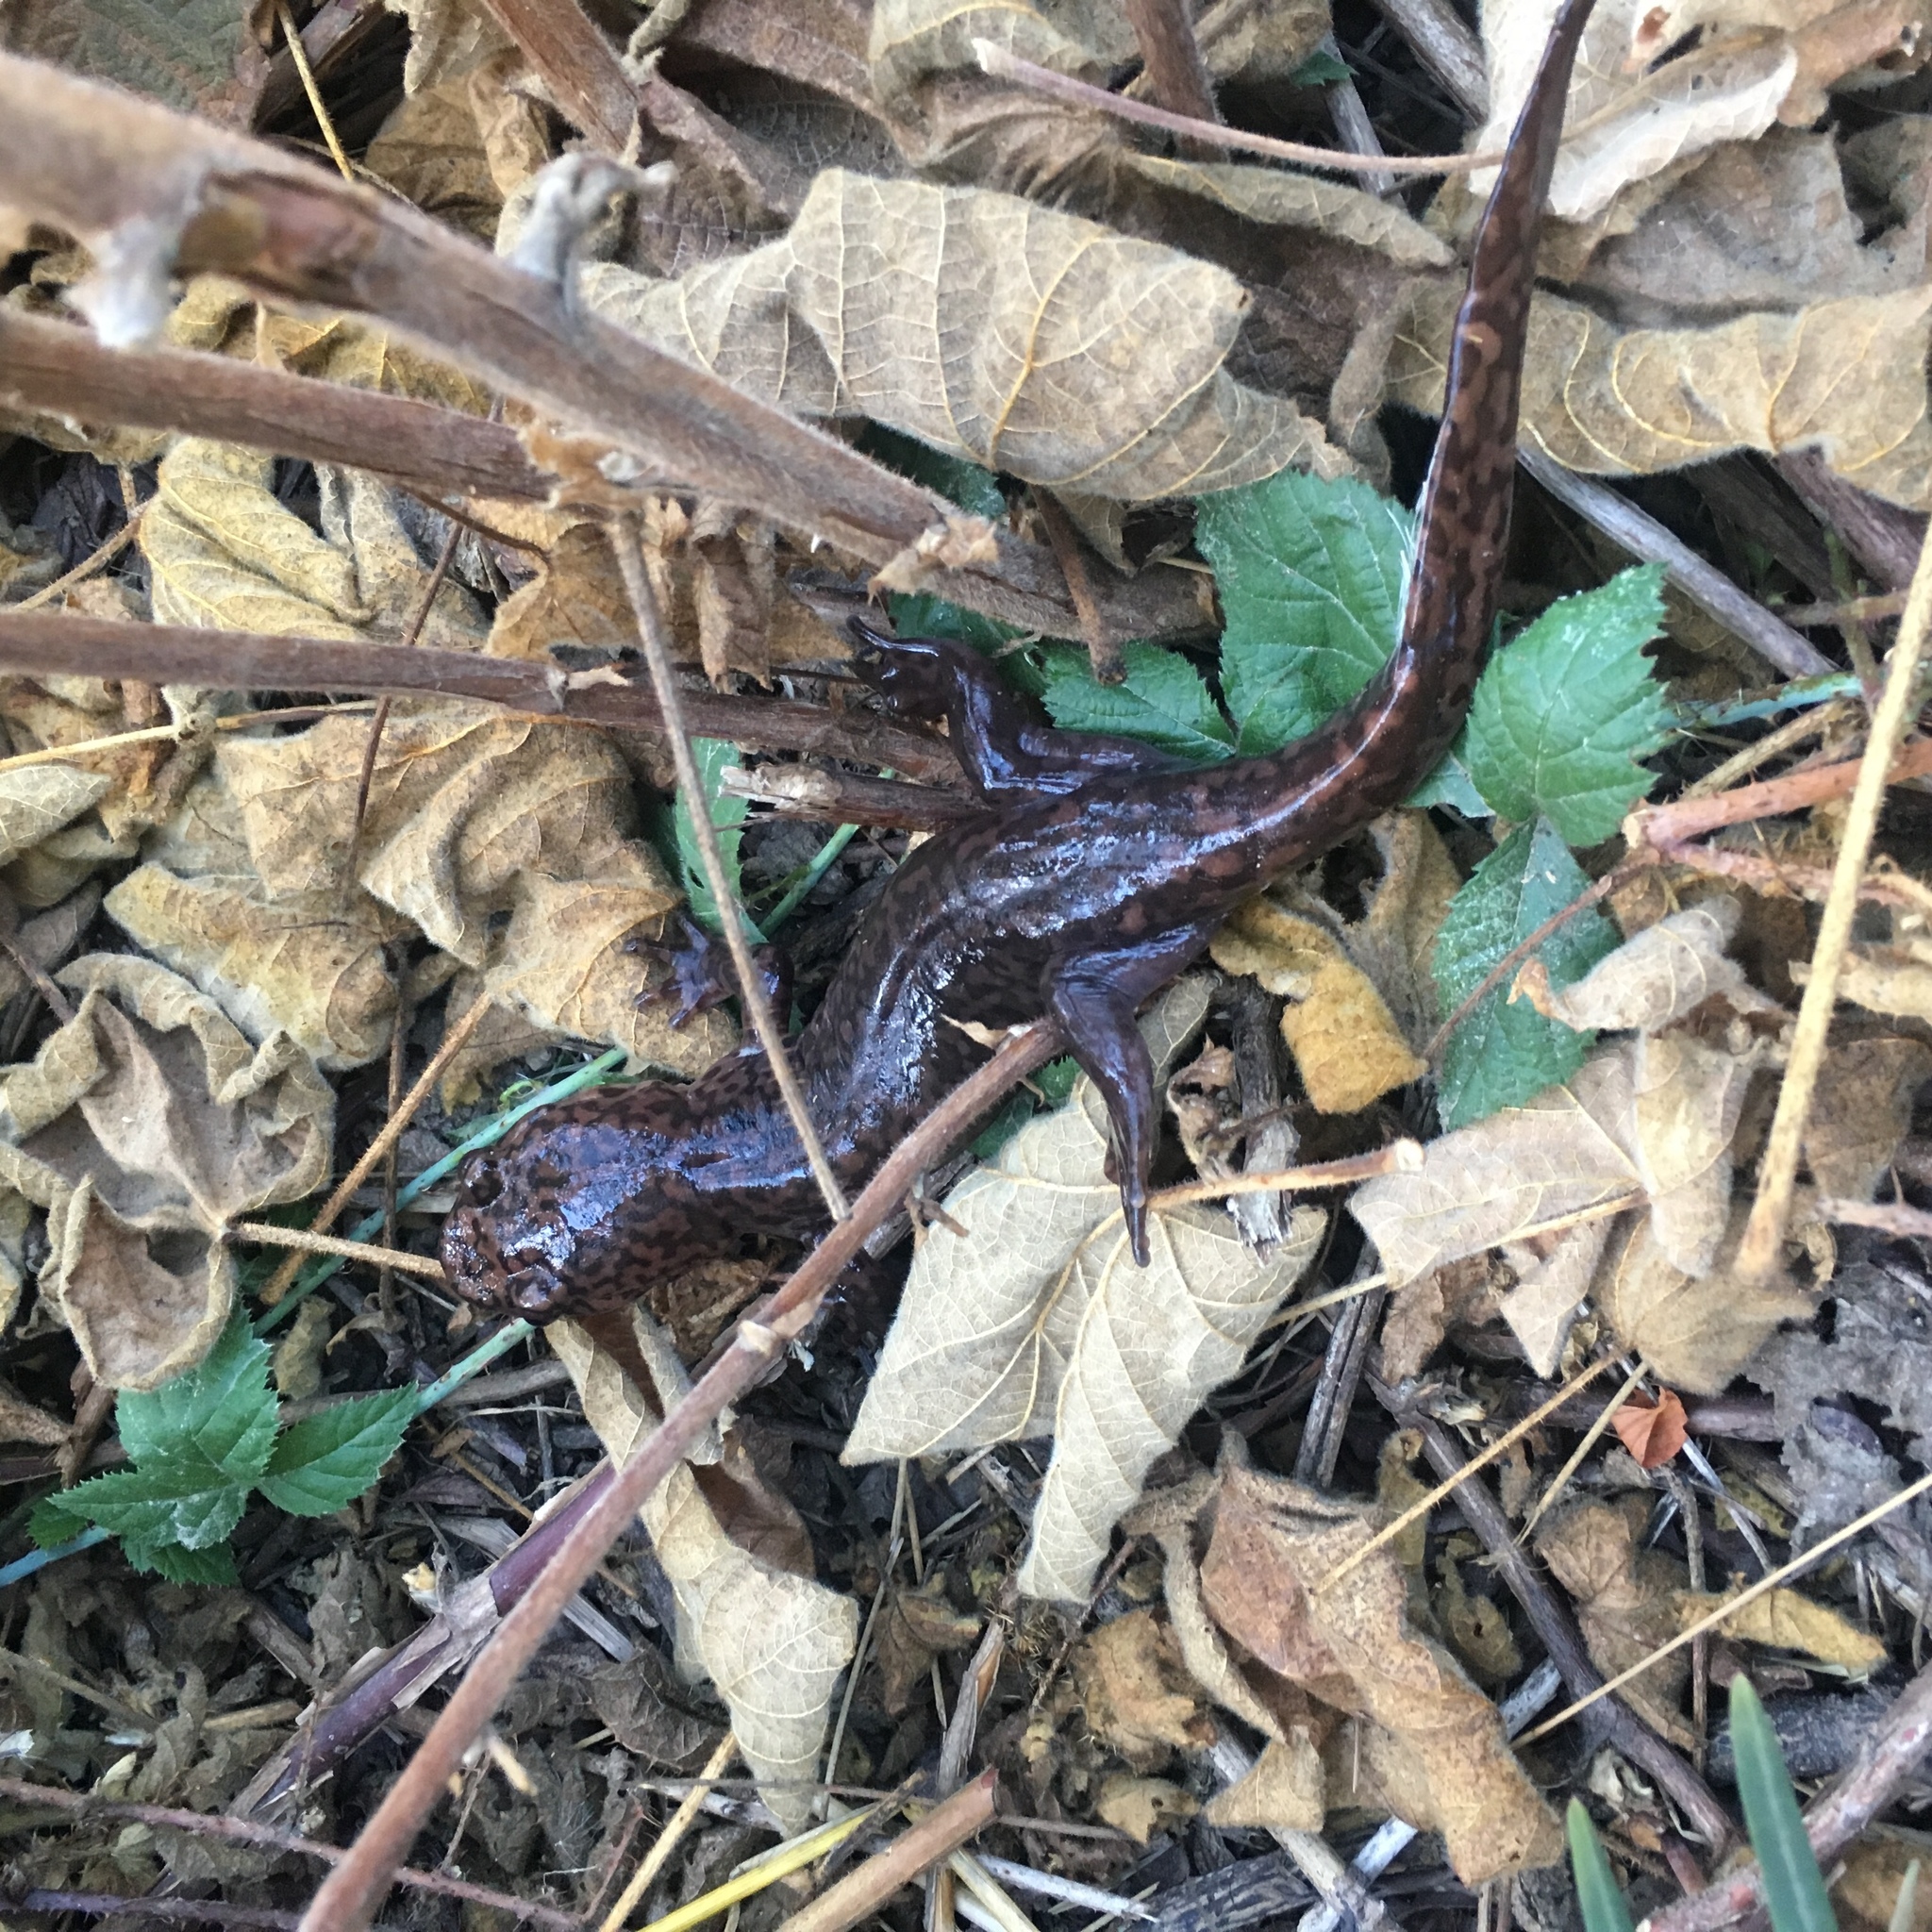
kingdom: Animalia
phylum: Chordata
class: Amphibia
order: Caudata
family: Ambystomatidae
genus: Dicamptodon
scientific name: Dicamptodon ensatus
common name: California giant salamander
